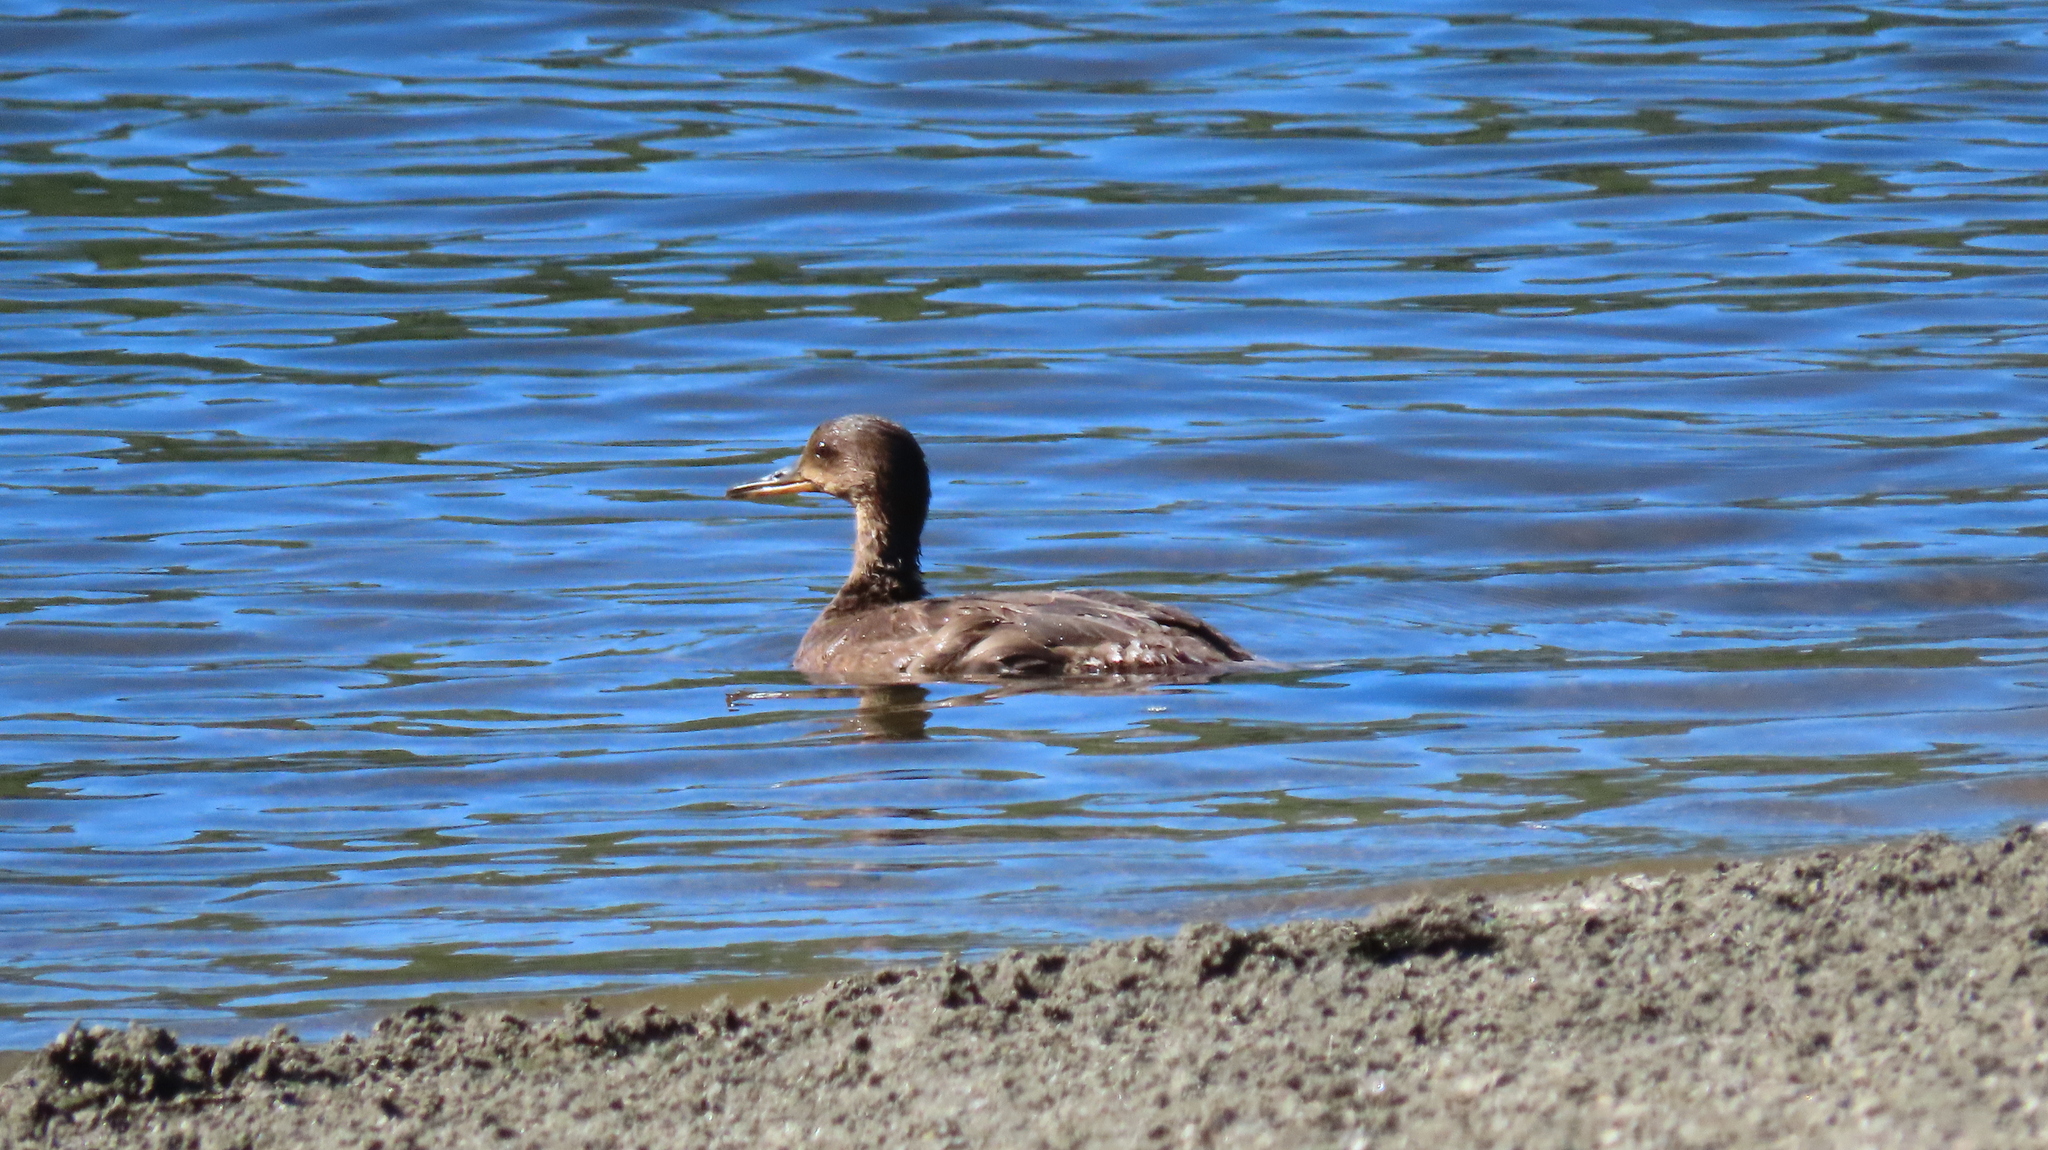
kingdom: Animalia
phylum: Chordata
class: Aves
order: Anseriformes
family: Anatidae
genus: Lophodytes
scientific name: Lophodytes cucullatus
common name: Hooded merganser
